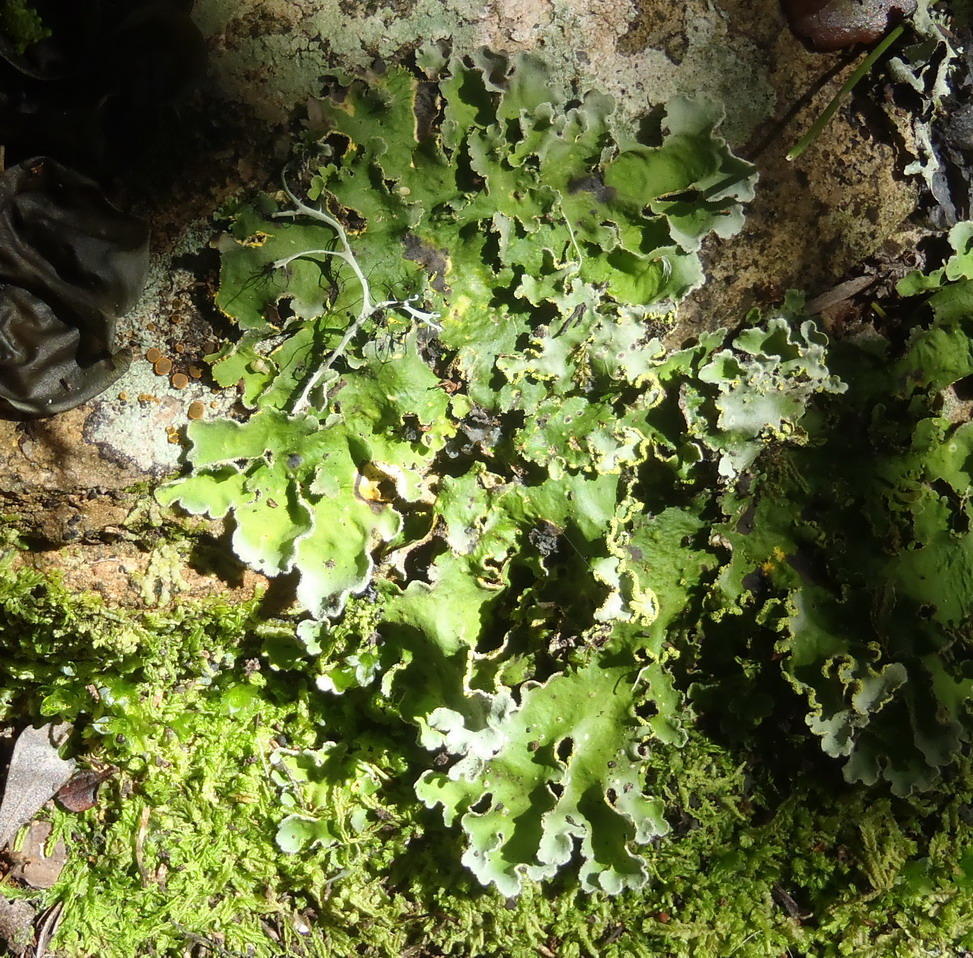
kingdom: Fungi
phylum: Ascomycota
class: Lecanoromycetes
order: Peltigerales
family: Lobariaceae
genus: Pseudocyphellaria
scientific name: Pseudocyphellaria aurata
